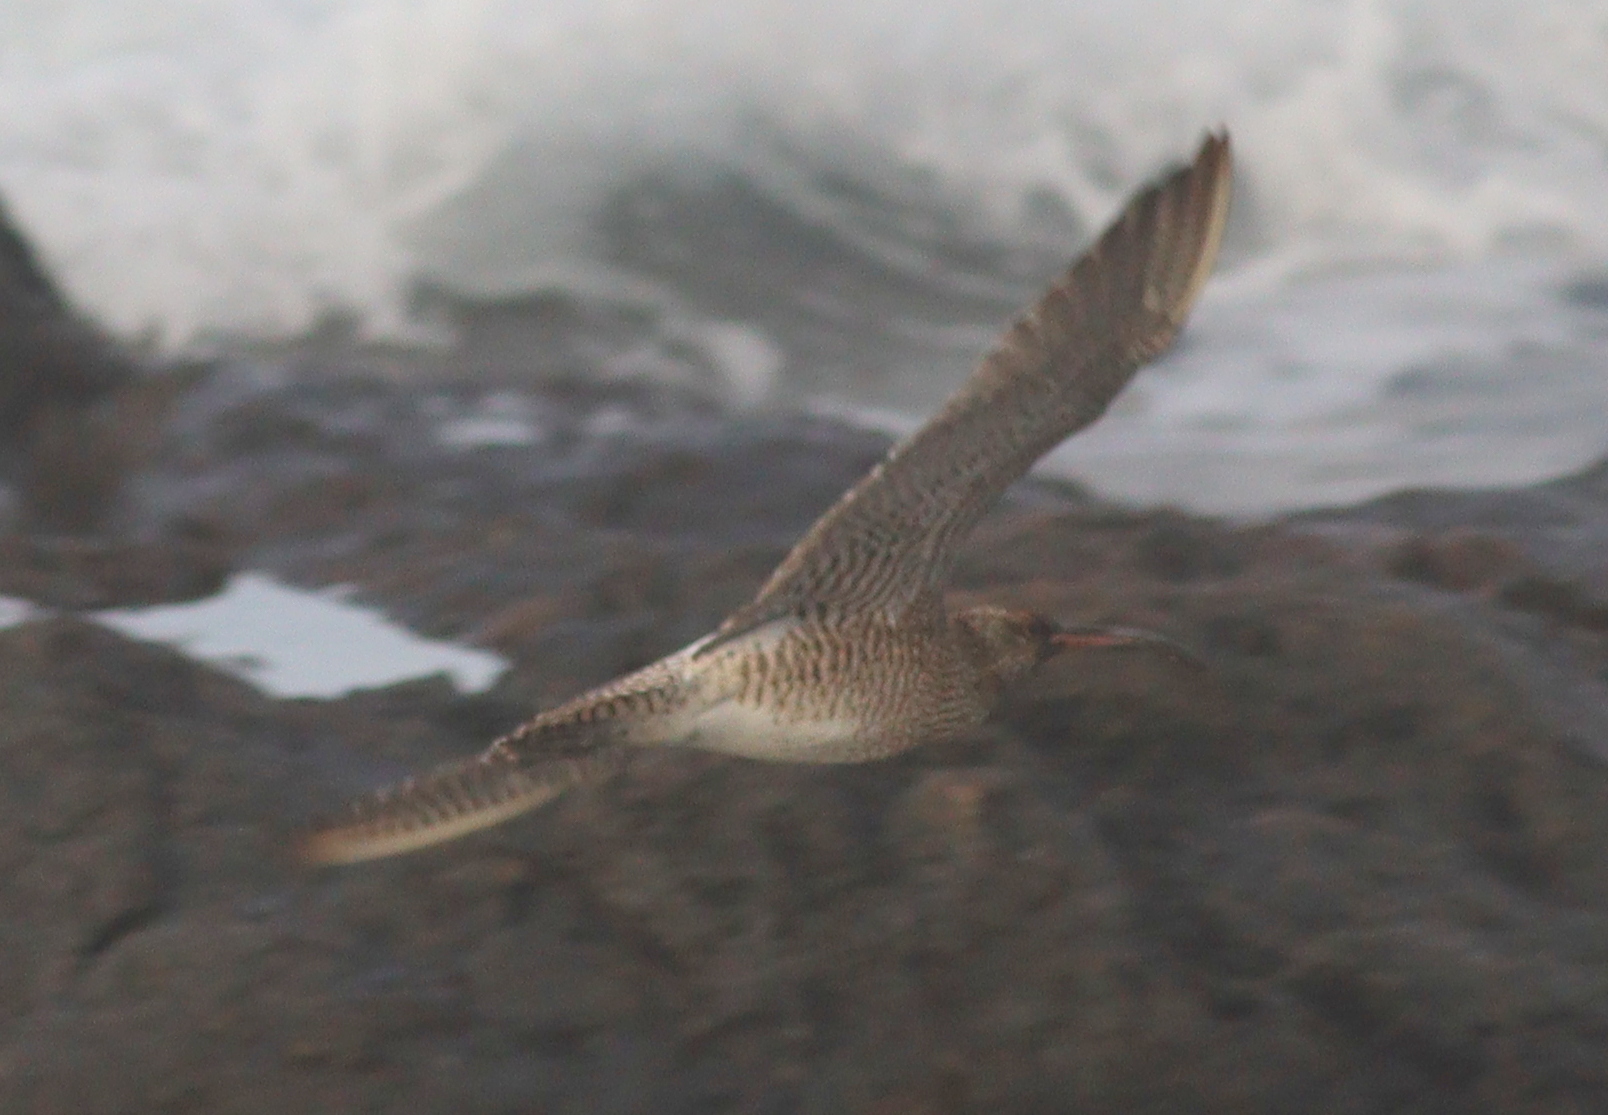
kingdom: Animalia
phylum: Chordata
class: Aves
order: Charadriiformes
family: Scolopacidae
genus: Numenius
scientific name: Numenius phaeopus
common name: Whimbrel
